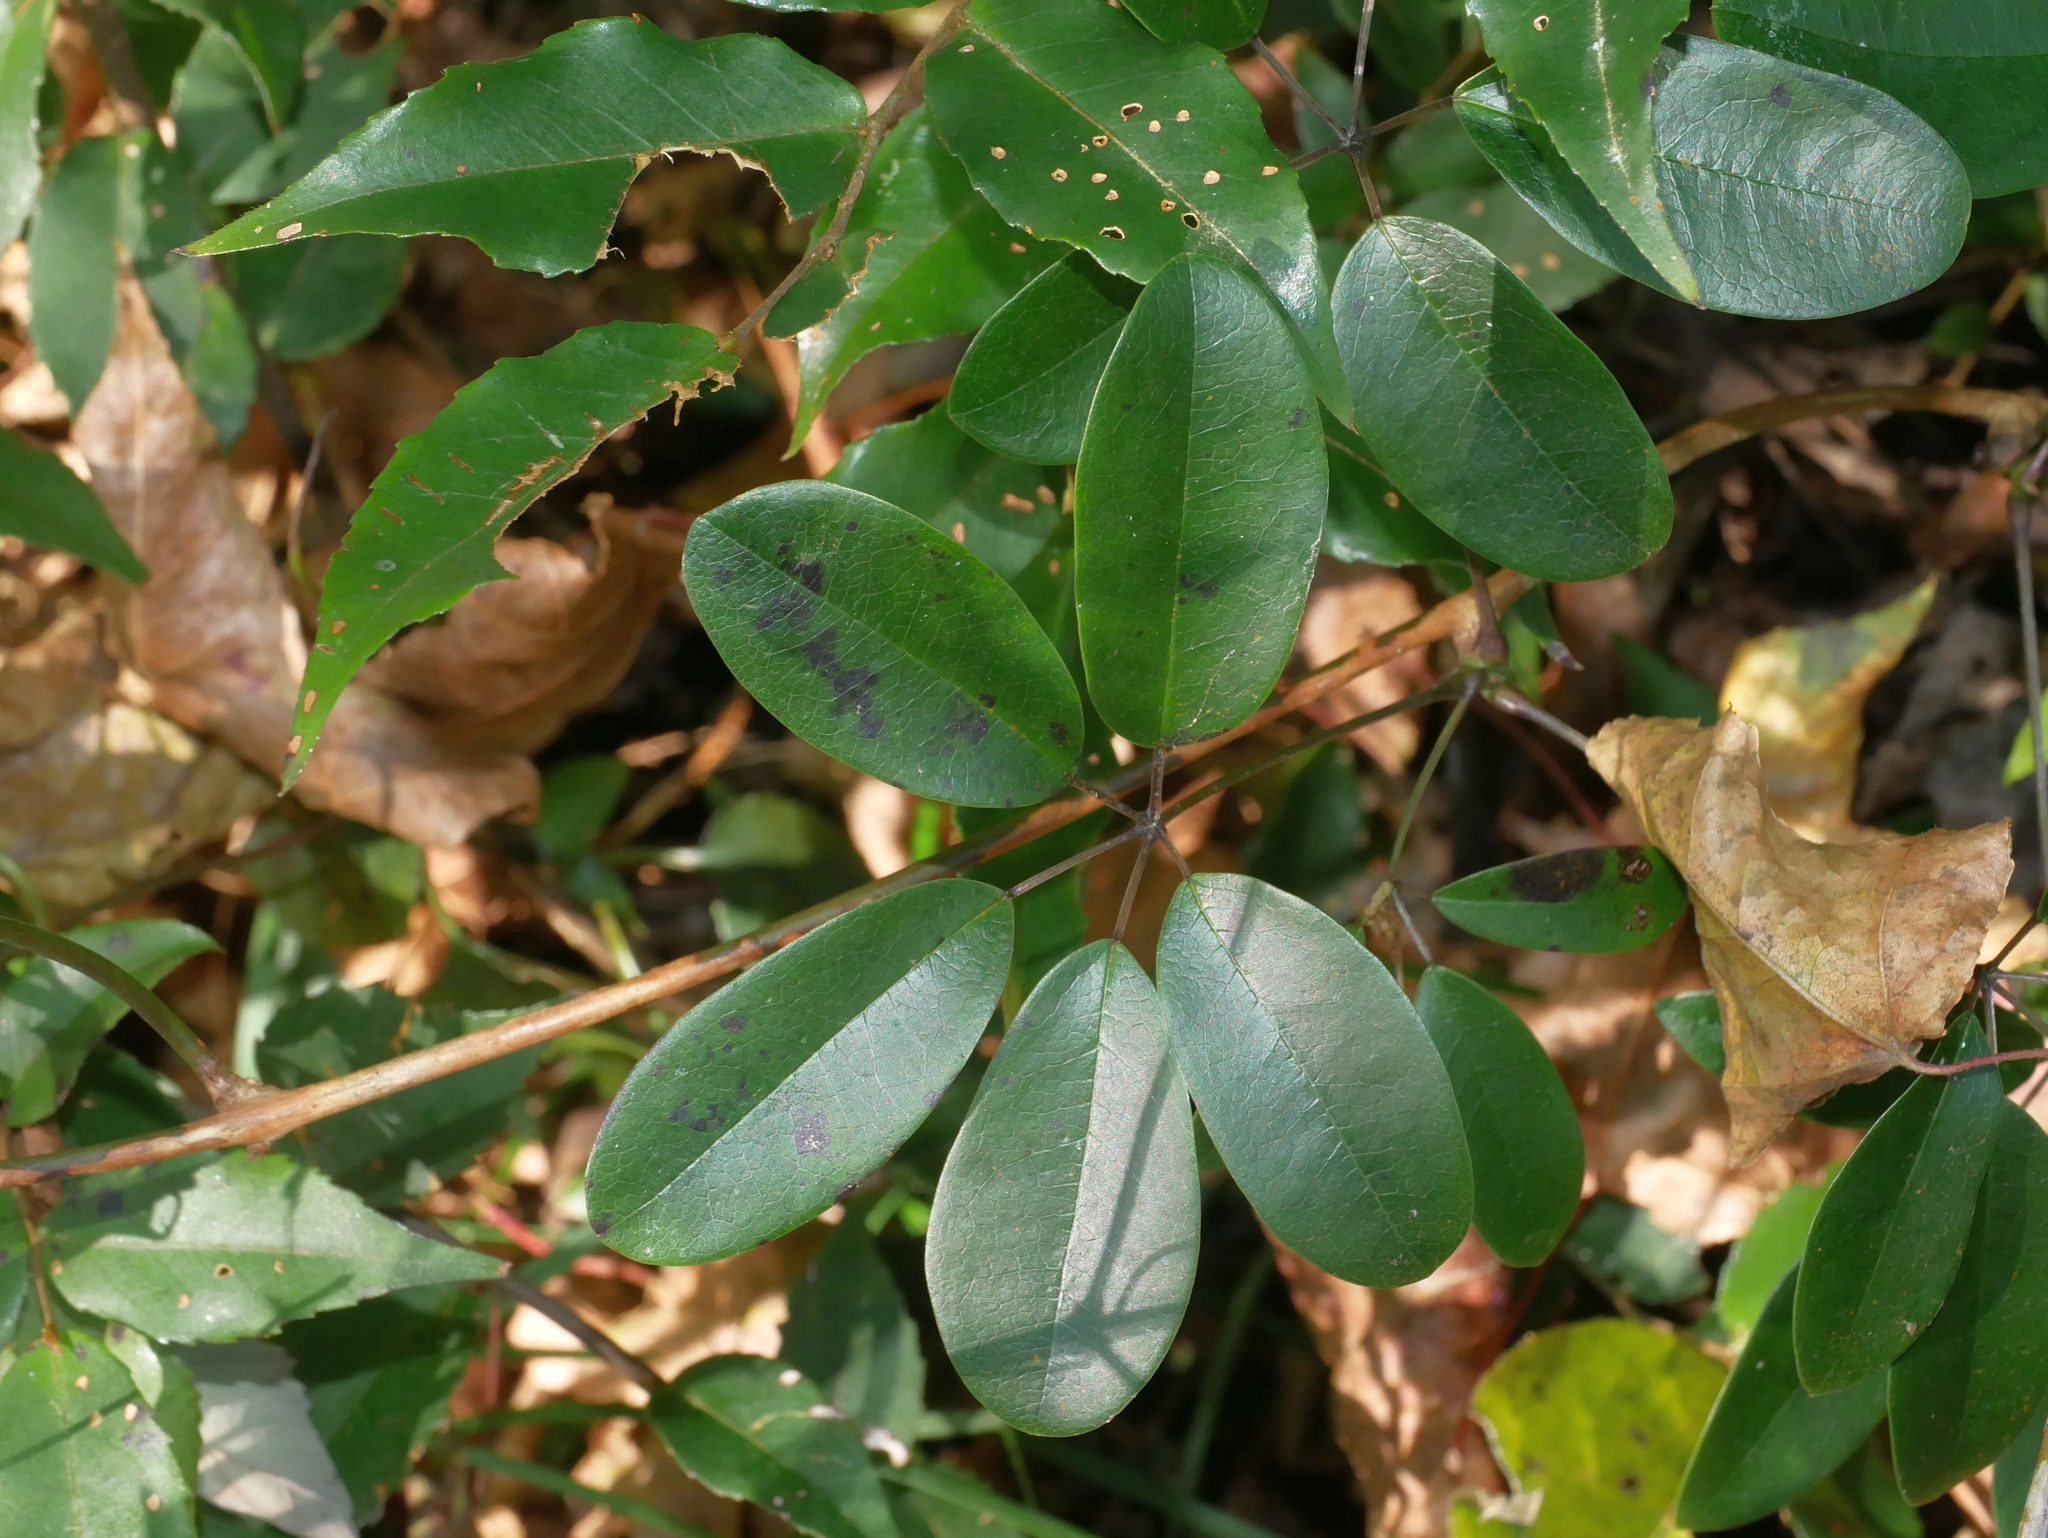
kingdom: Plantae
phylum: Tracheophyta
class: Magnoliopsida
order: Ranunculales
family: Lardizabalaceae
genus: Stauntonia
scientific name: Stauntonia obovata
